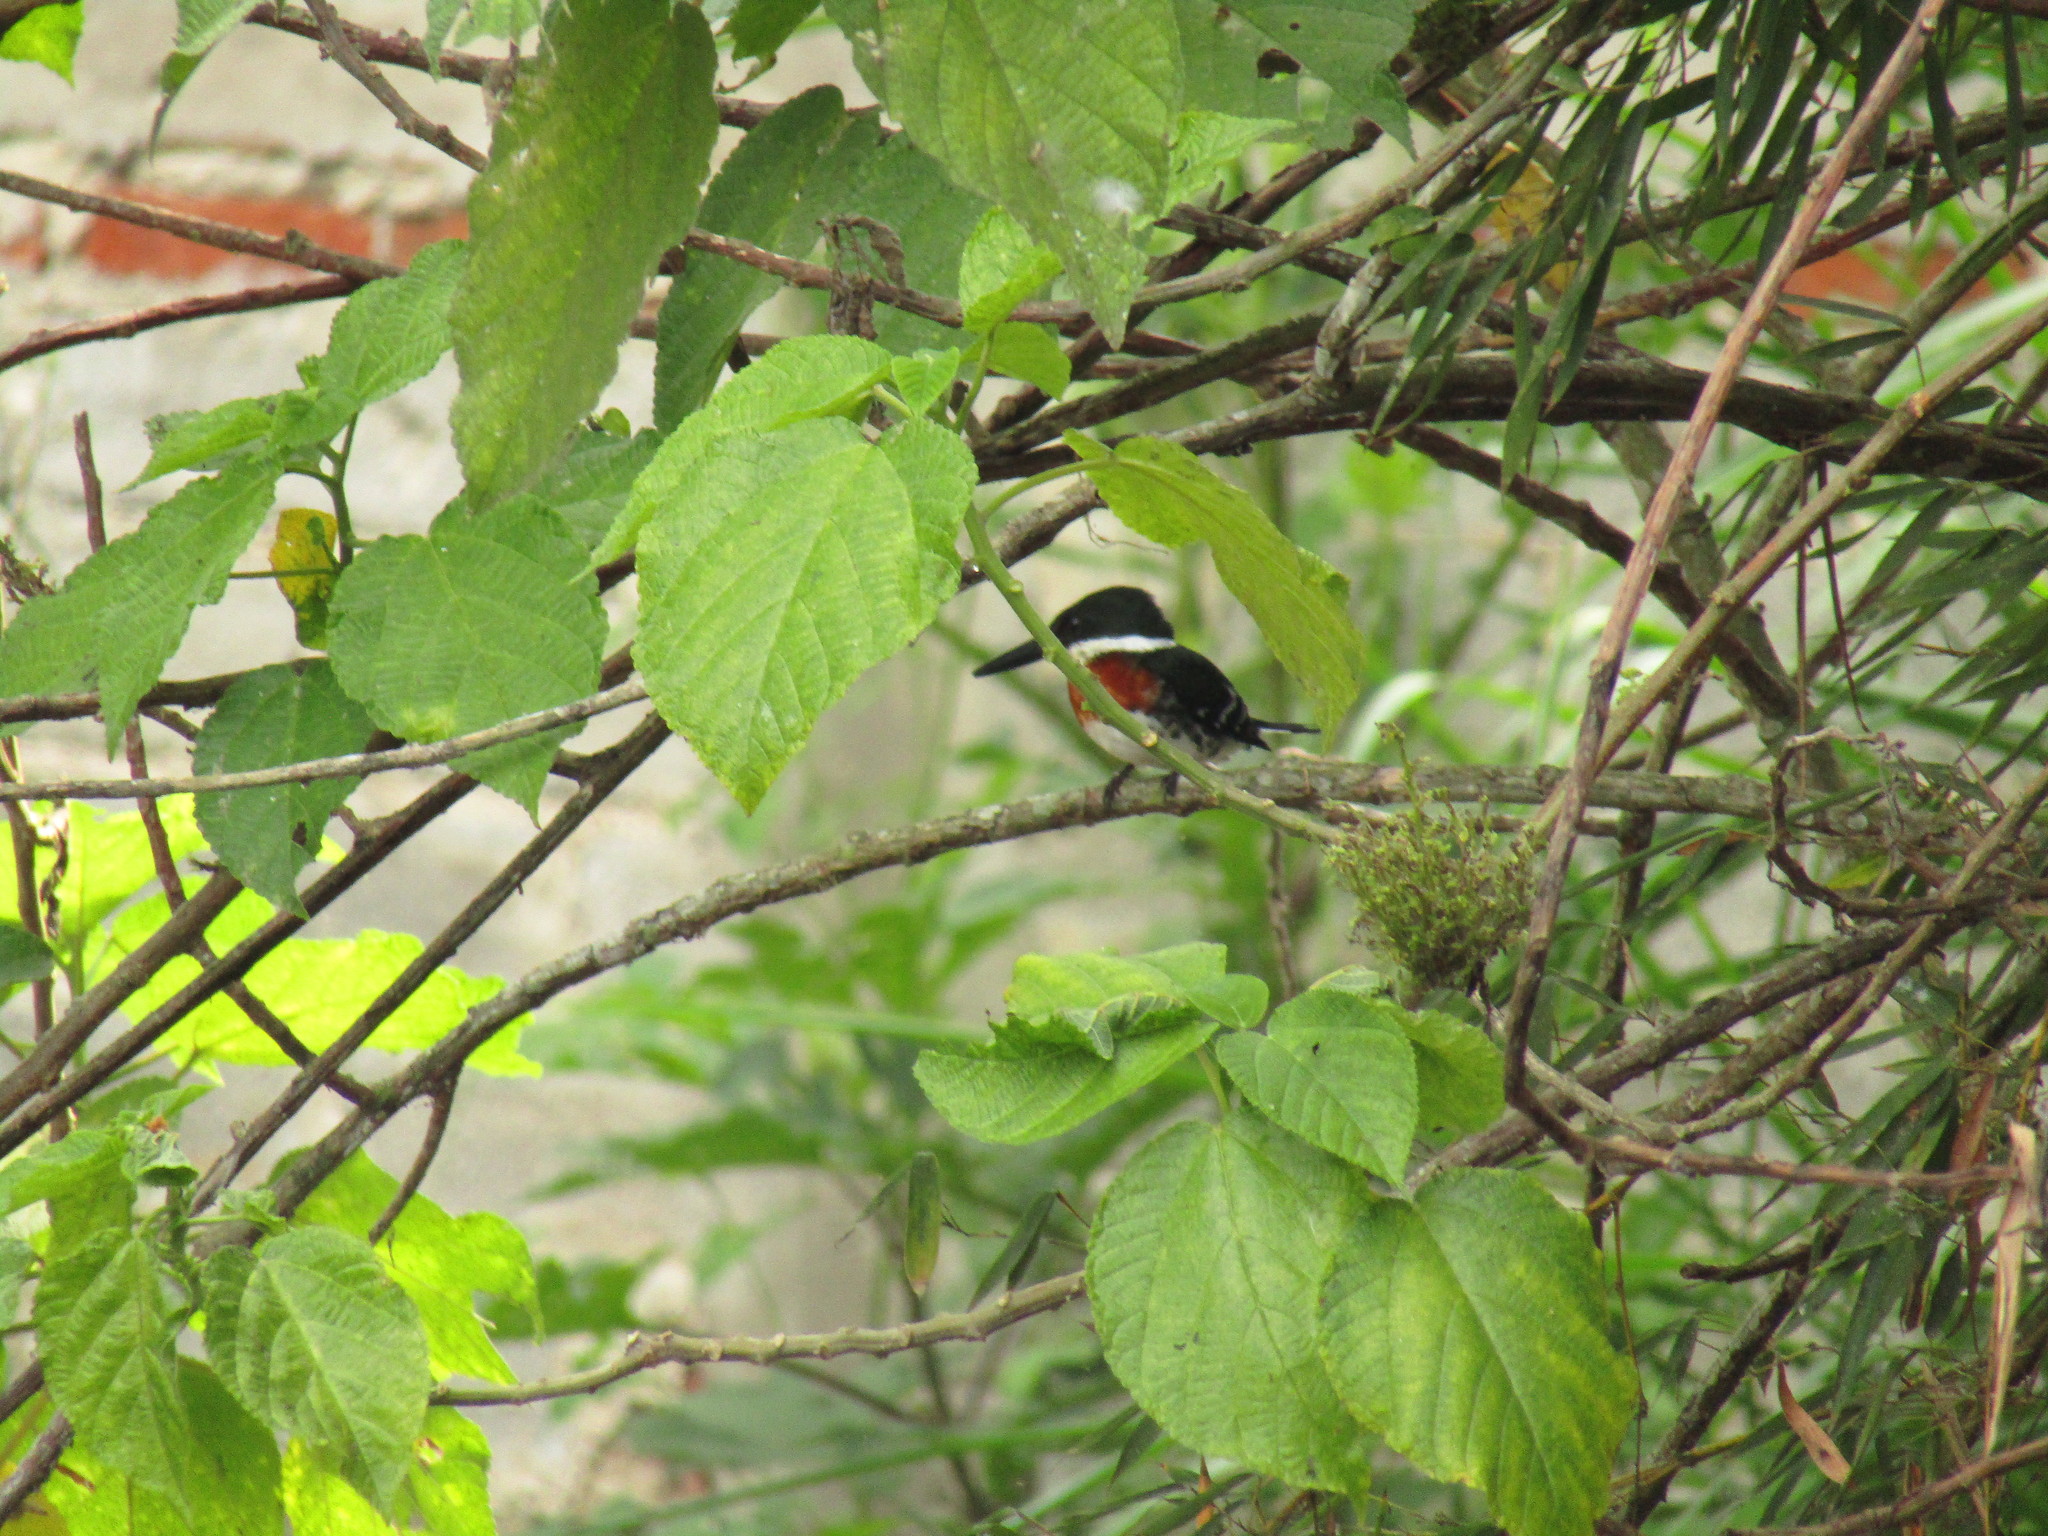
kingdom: Animalia
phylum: Chordata
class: Aves
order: Coraciiformes
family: Alcedinidae
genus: Chloroceryle
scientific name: Chloroceryle americana
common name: Green kingfisher
